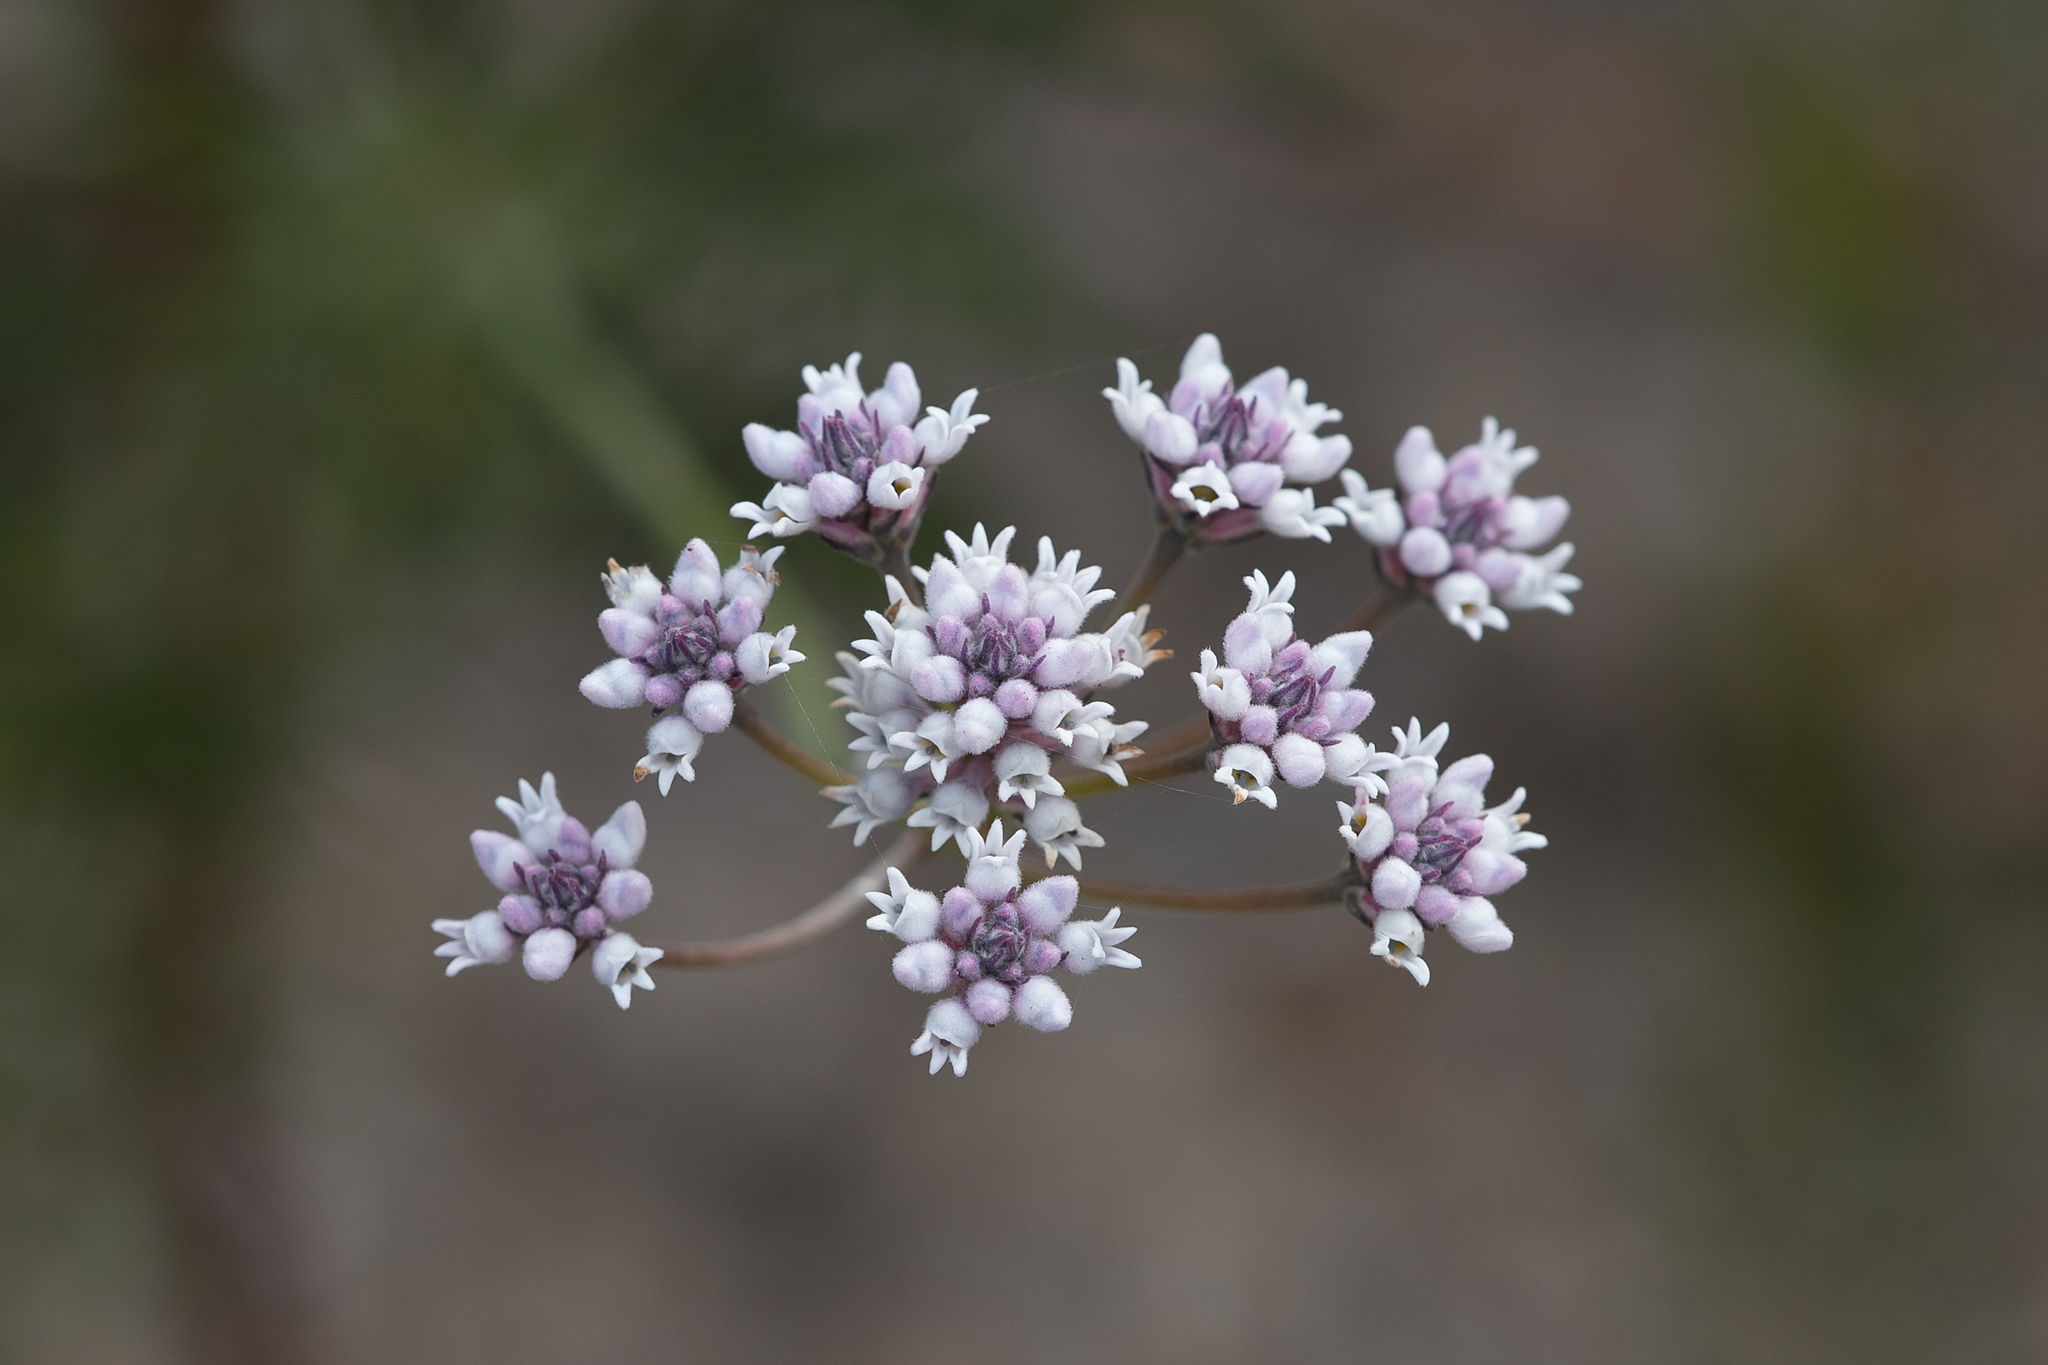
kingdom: Plantae
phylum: Tracheophyta
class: Magnoliopsida
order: Proteales
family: Proteaceae
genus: Conospermum
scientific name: Conospermum patens
